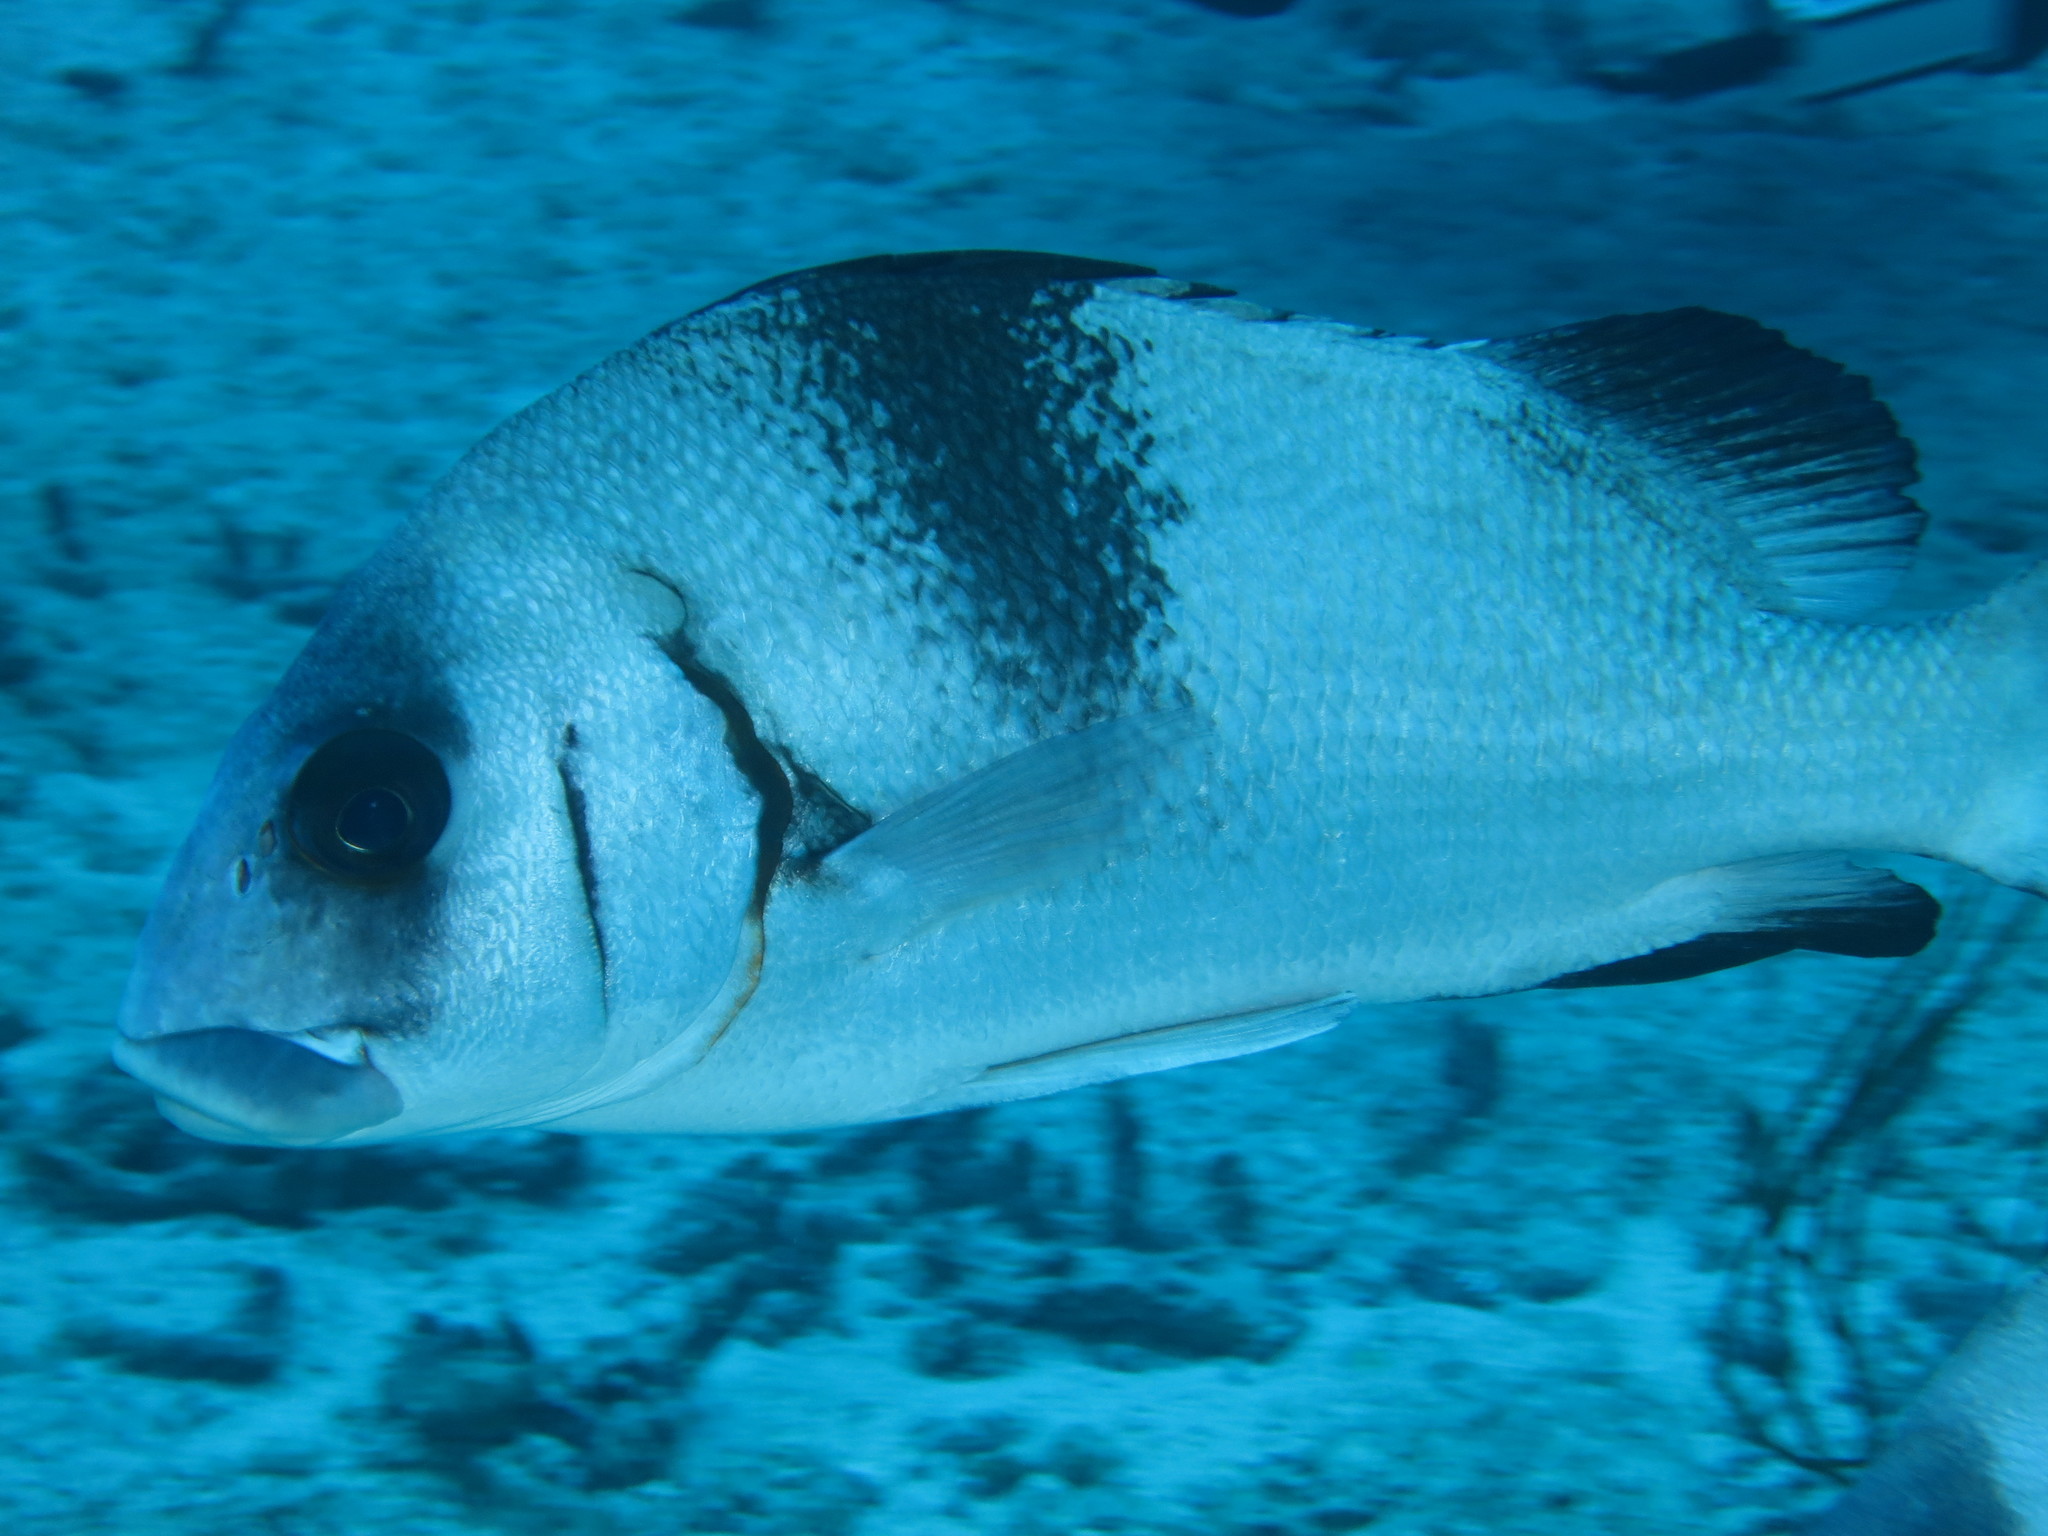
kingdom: Animalia
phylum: Chordata
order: Perciformes
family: Haemulidae
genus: Plectorhinchus
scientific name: Plectorhinchus gibbosus
